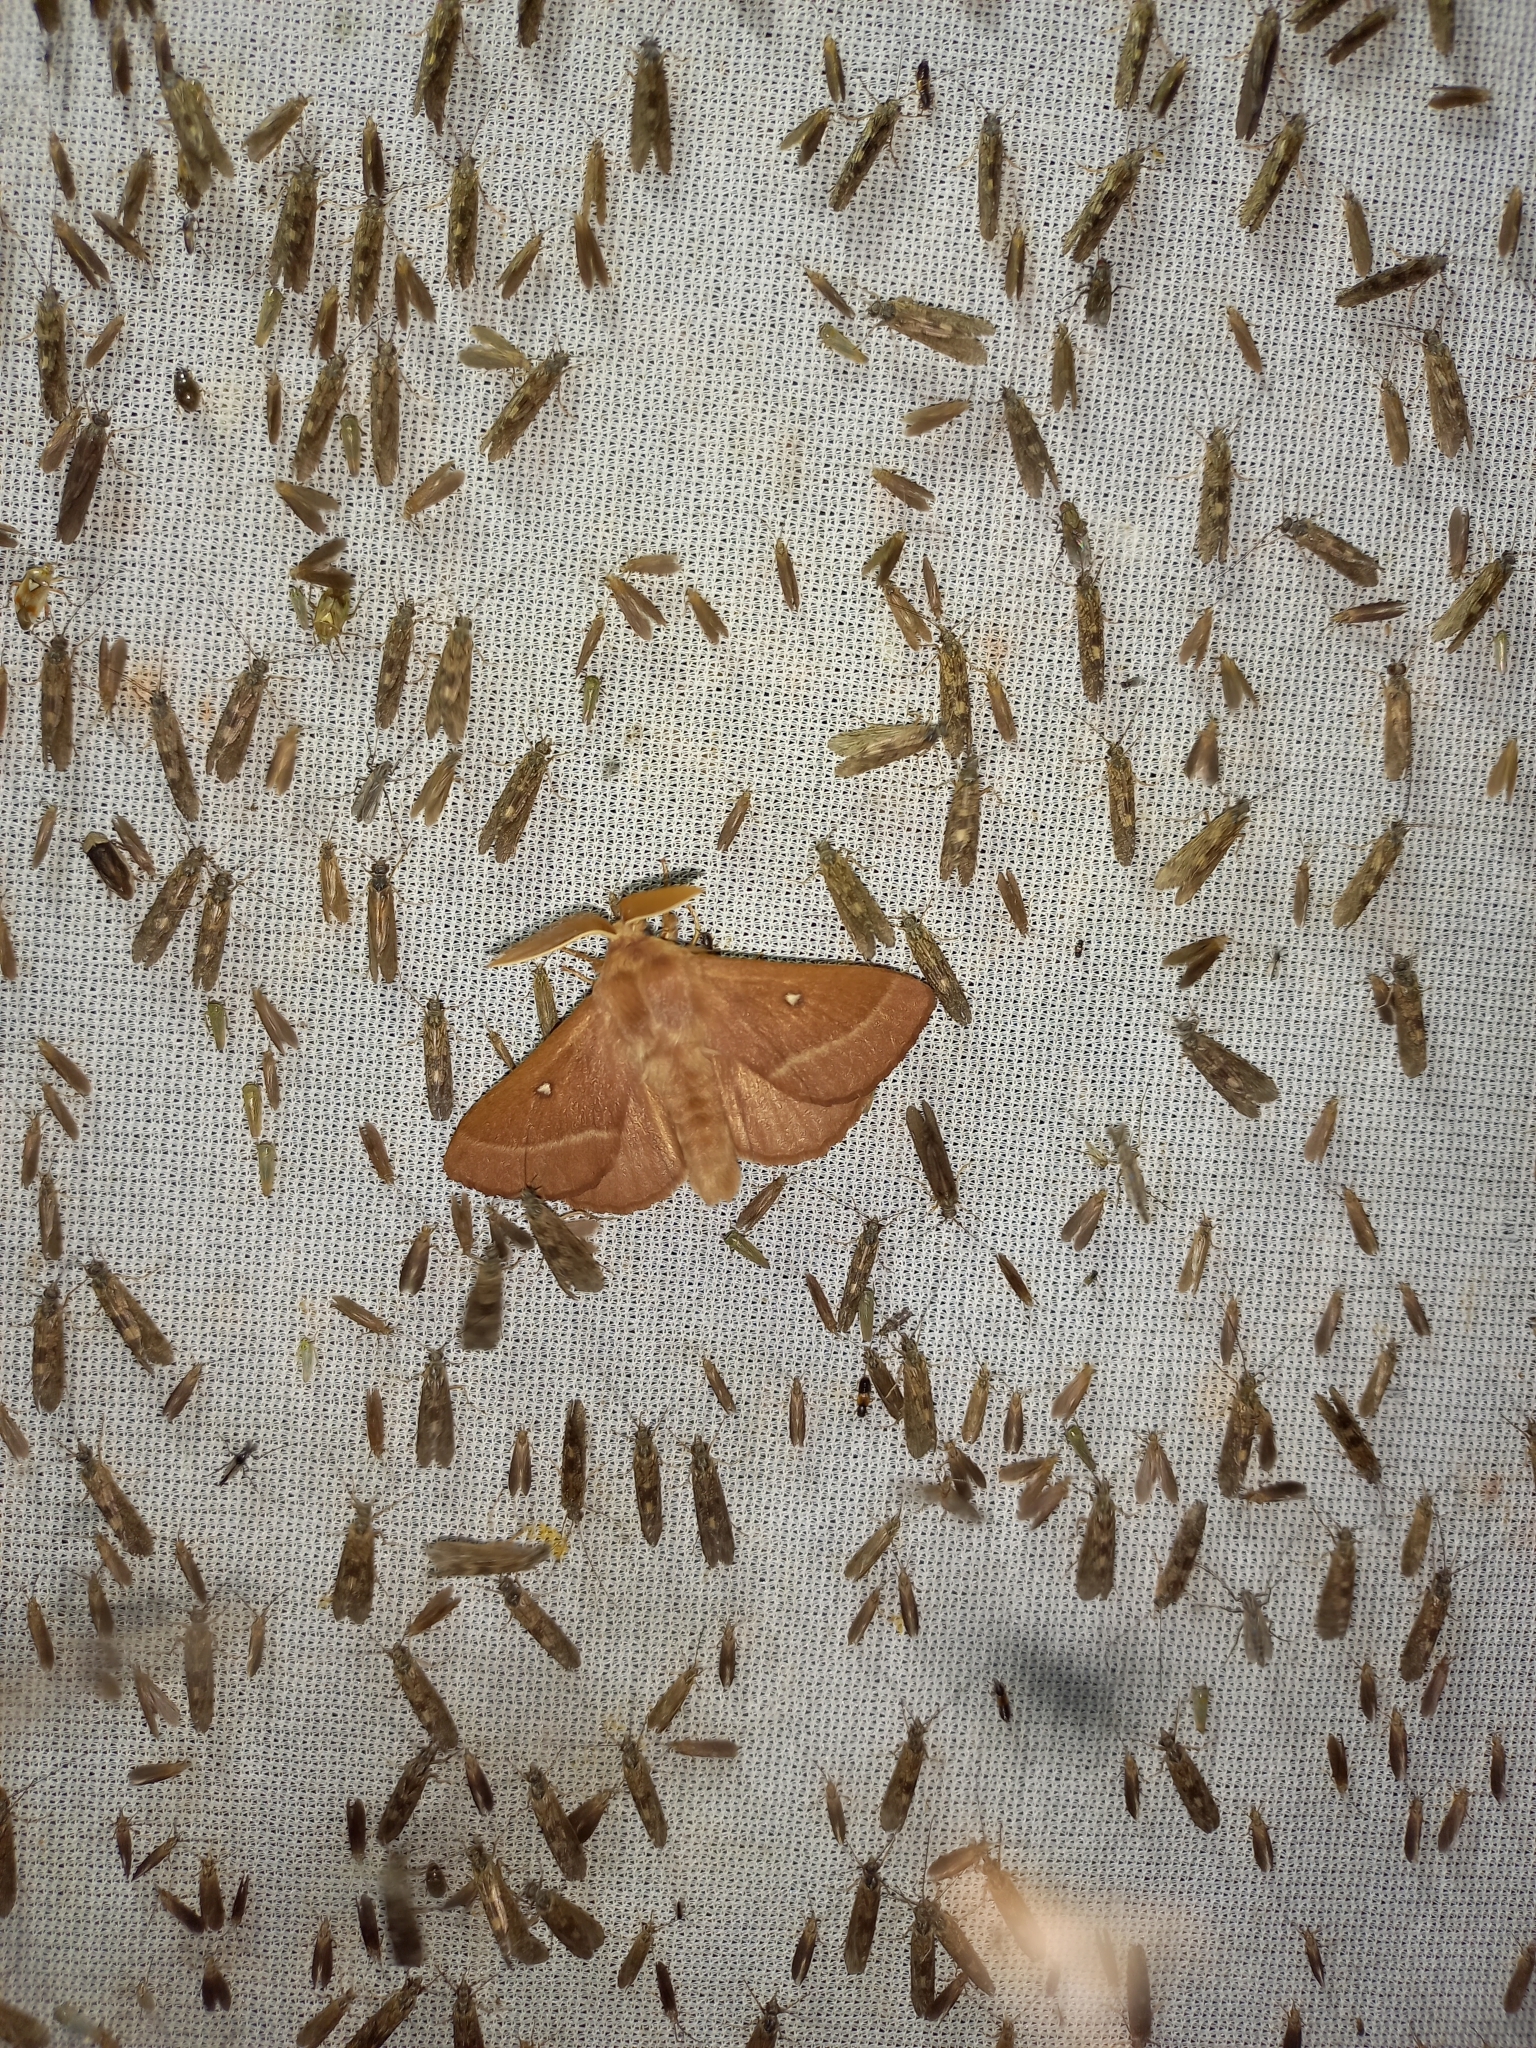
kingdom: Animalia
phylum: Arthropoda
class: Insecta
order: Lepidoptera
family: Lasiocampidae
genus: Lasiocampa
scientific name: Lasiocampa trifolii
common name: Grass eggar
